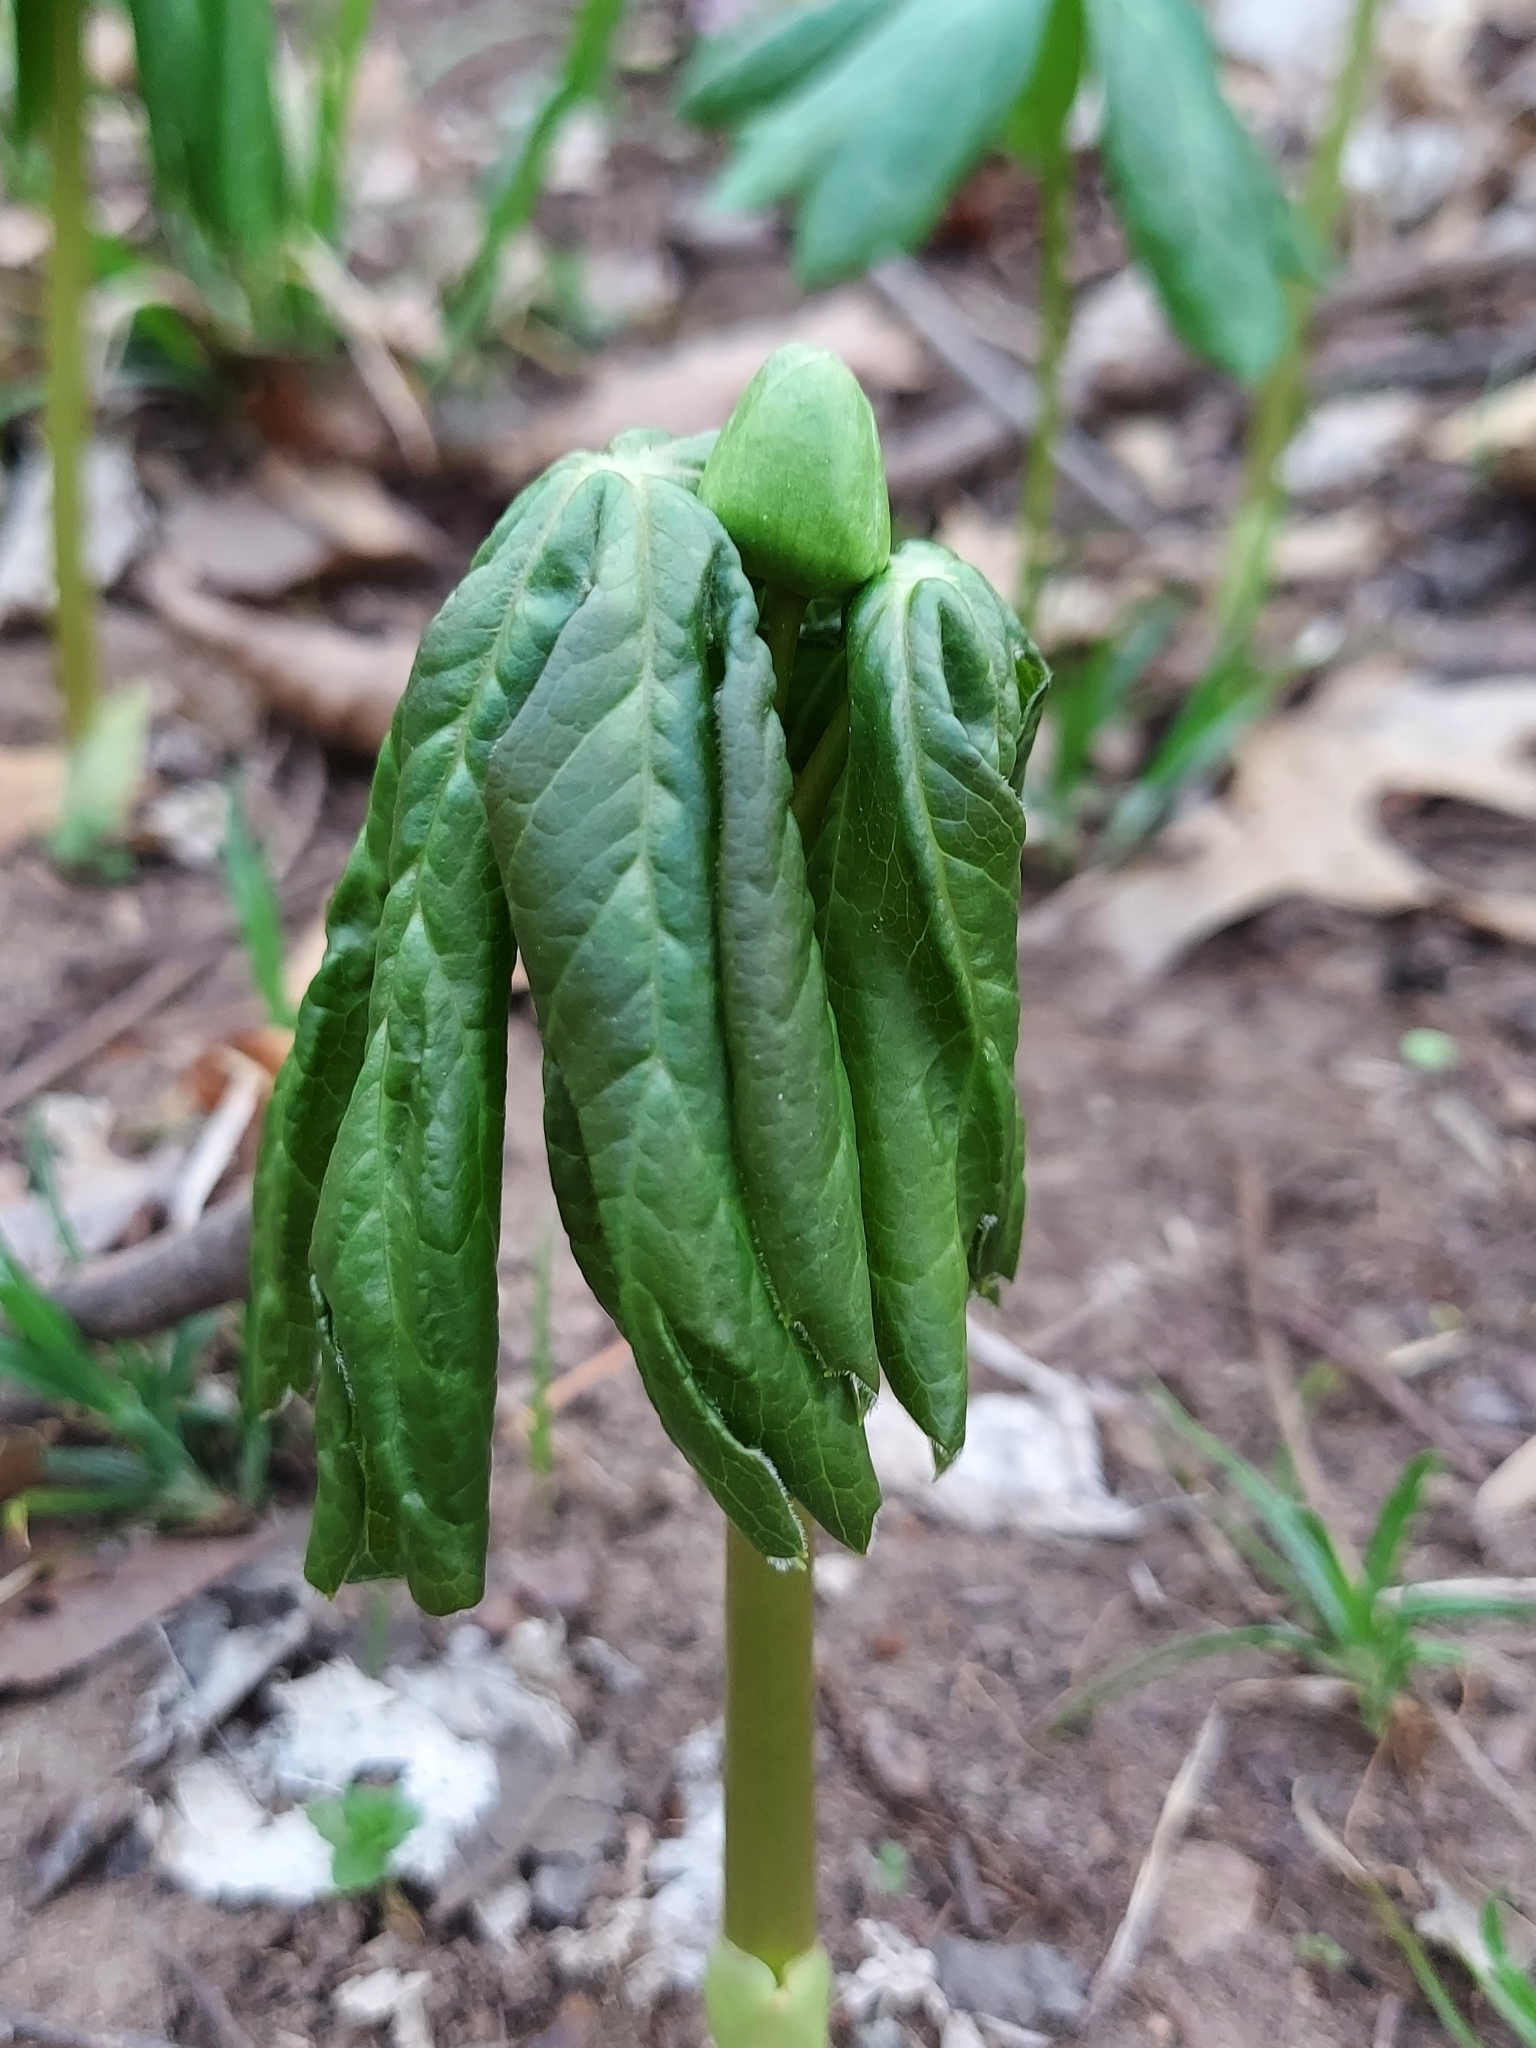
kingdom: Plantae
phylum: Tracheophyta
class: Magnoliopsida
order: Ranunculales
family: Berberidaceae
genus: Podophyllum
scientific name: Podophyllum peltatum
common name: Wild mandrake
